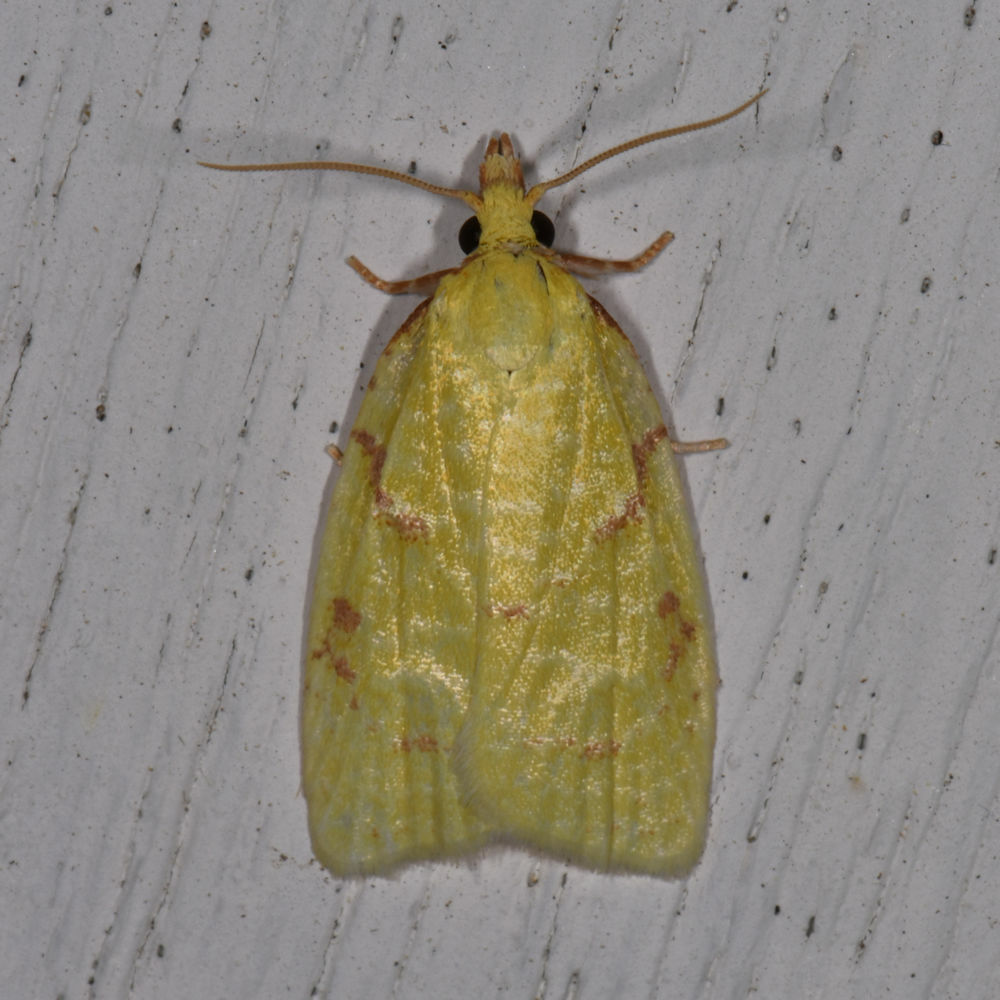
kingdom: Animalia
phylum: Arthropoda
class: Insecta
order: Lepidoptera
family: Tortricidae
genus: Cenopis
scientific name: Cenopis pettitana
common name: Maple-basswood leafroller moth
